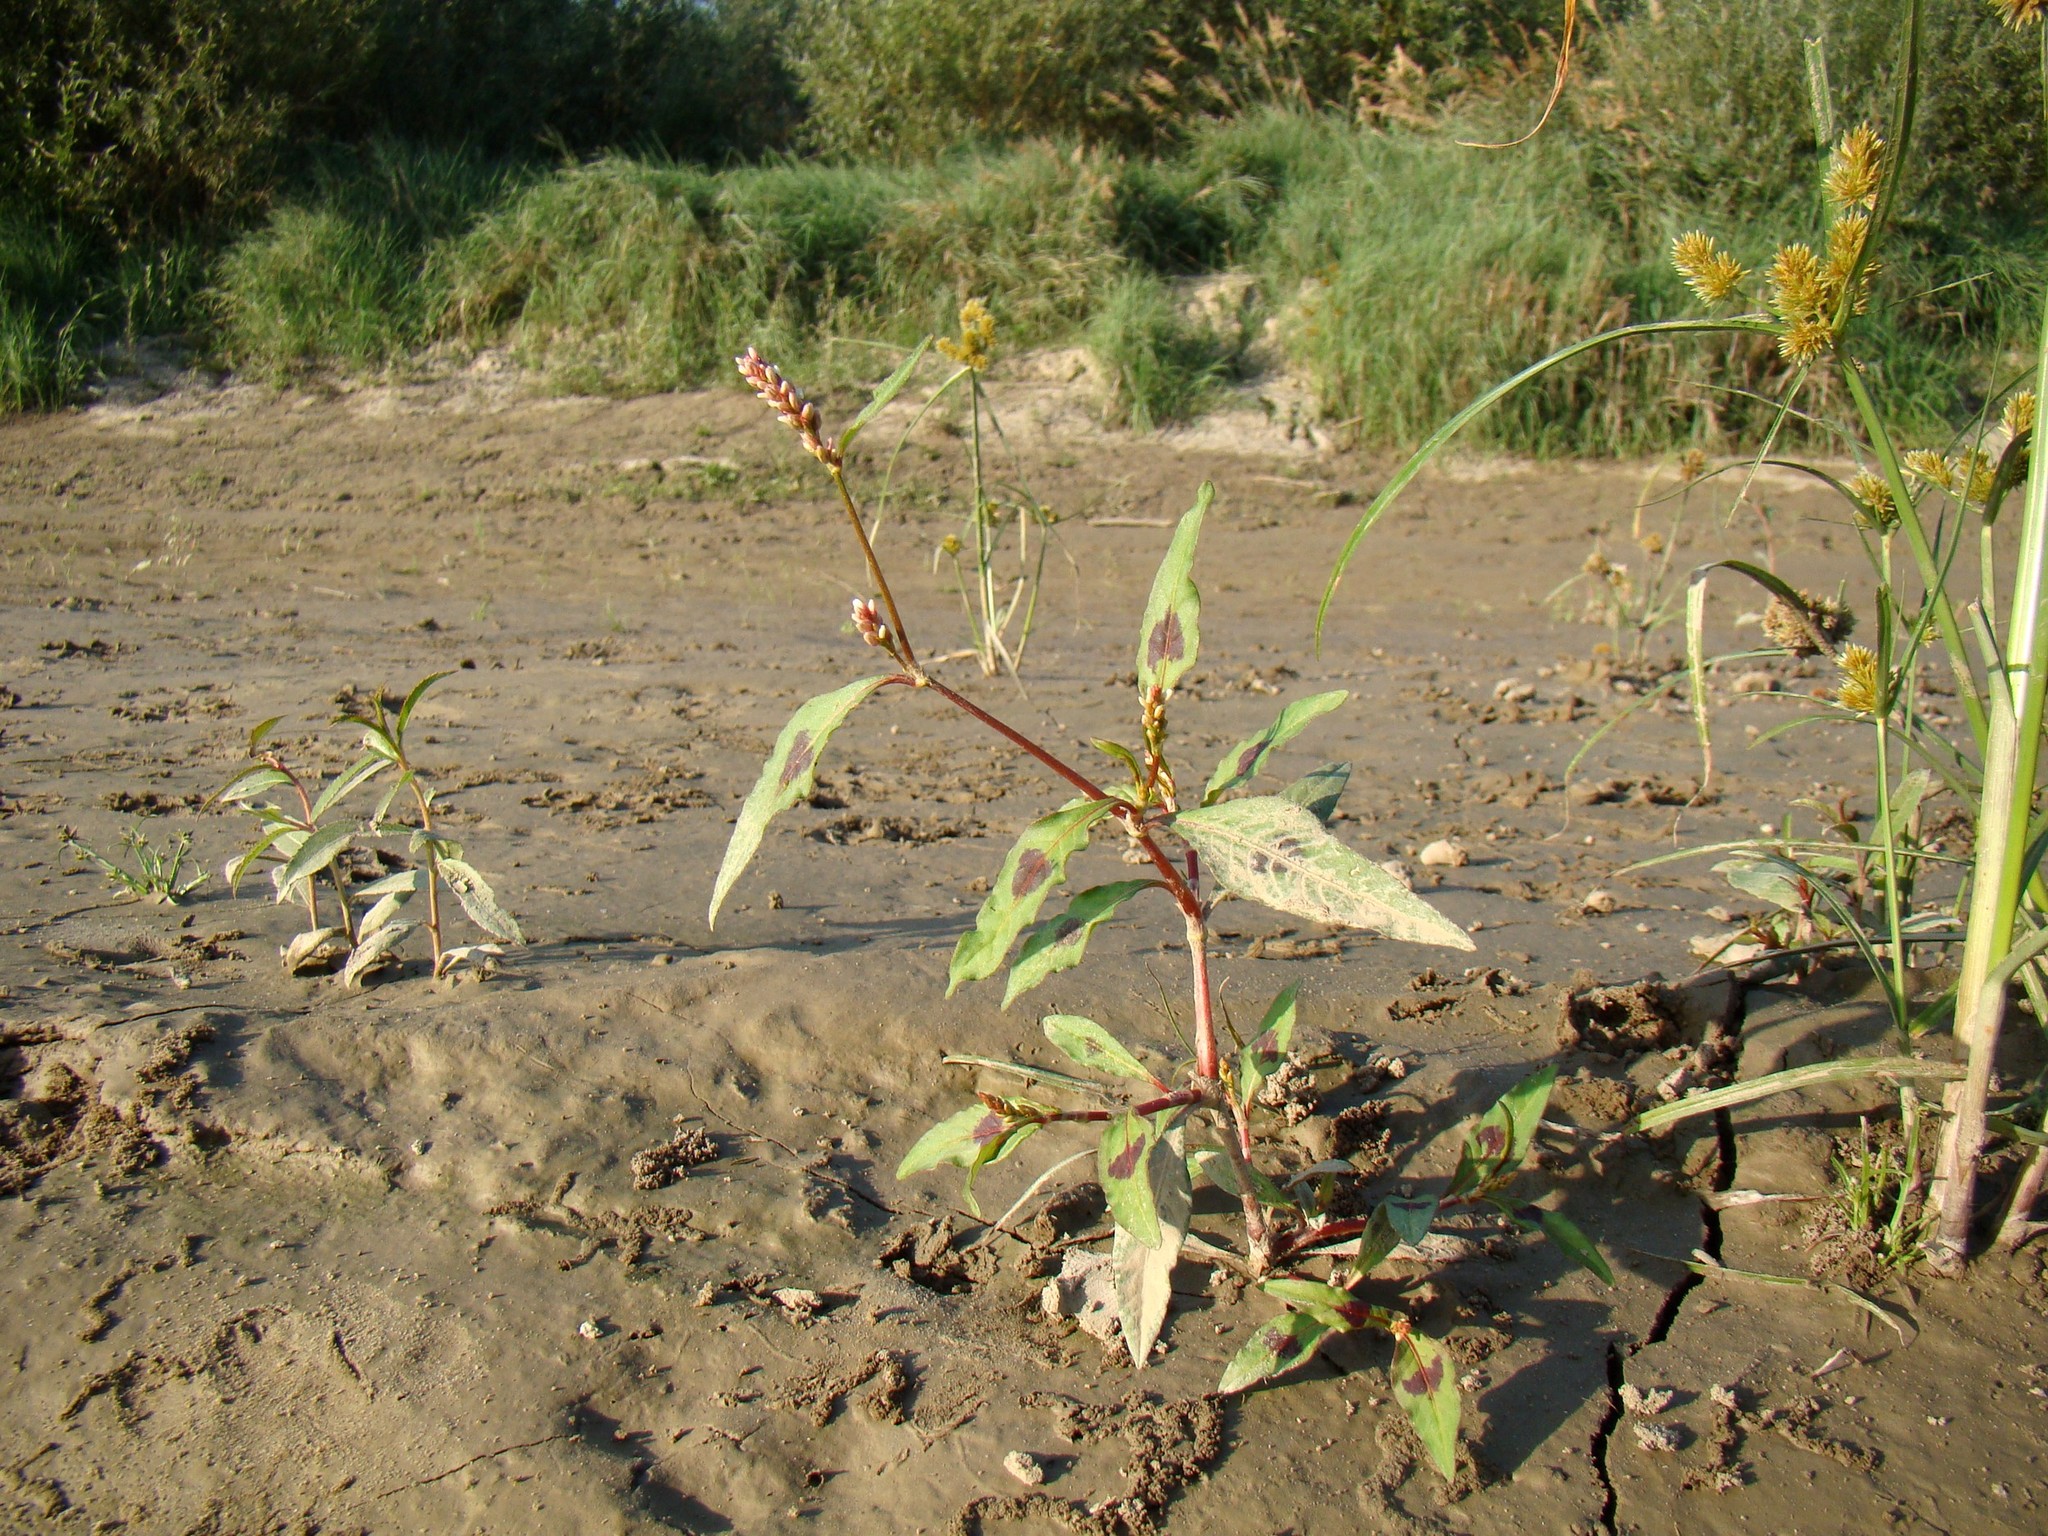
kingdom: Plantae
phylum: Tracheophyta
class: Magnoliopsida
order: Caryophyllales
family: Polygonaceae
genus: Persicaria
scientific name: Persicaria maculosa
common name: Redshank
